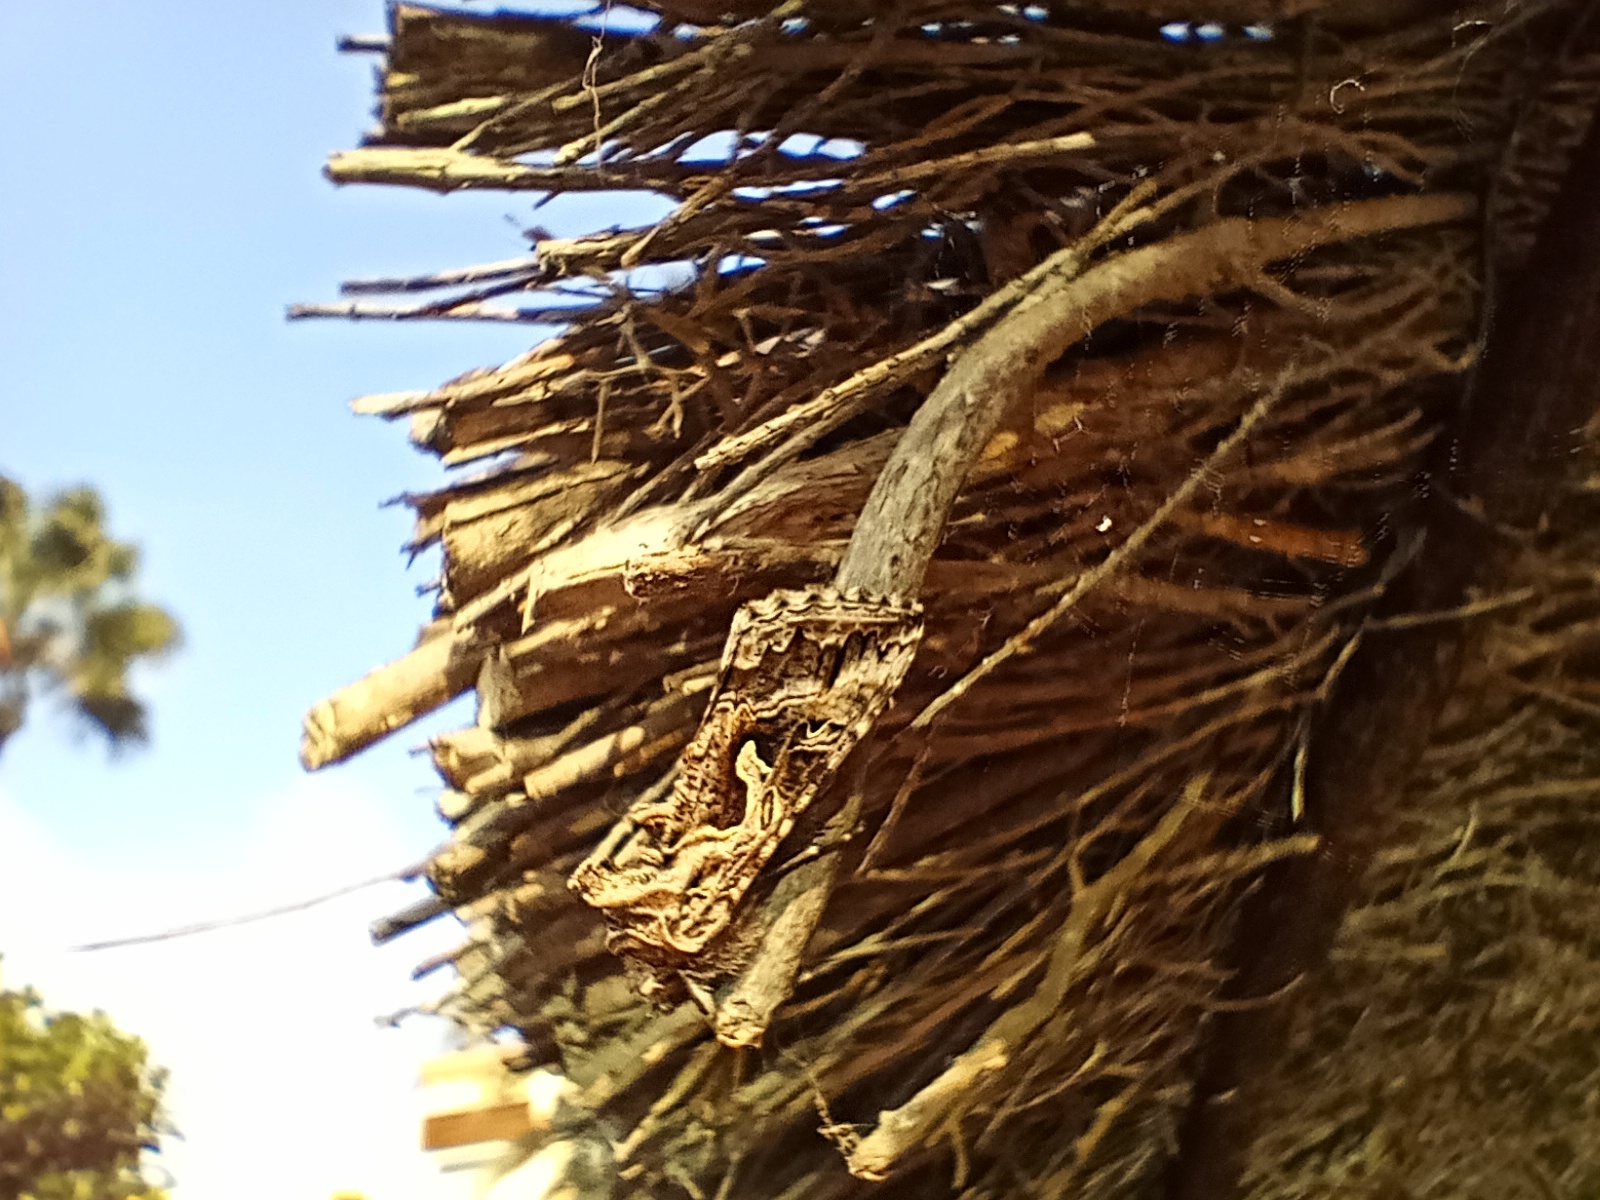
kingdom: Animalia
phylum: Arthropoda
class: Insecta
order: Lepidoptera
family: Noctuidae
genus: Cornutiplusia
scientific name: Cornutiplusia circumflexa
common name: Yorkshire y
